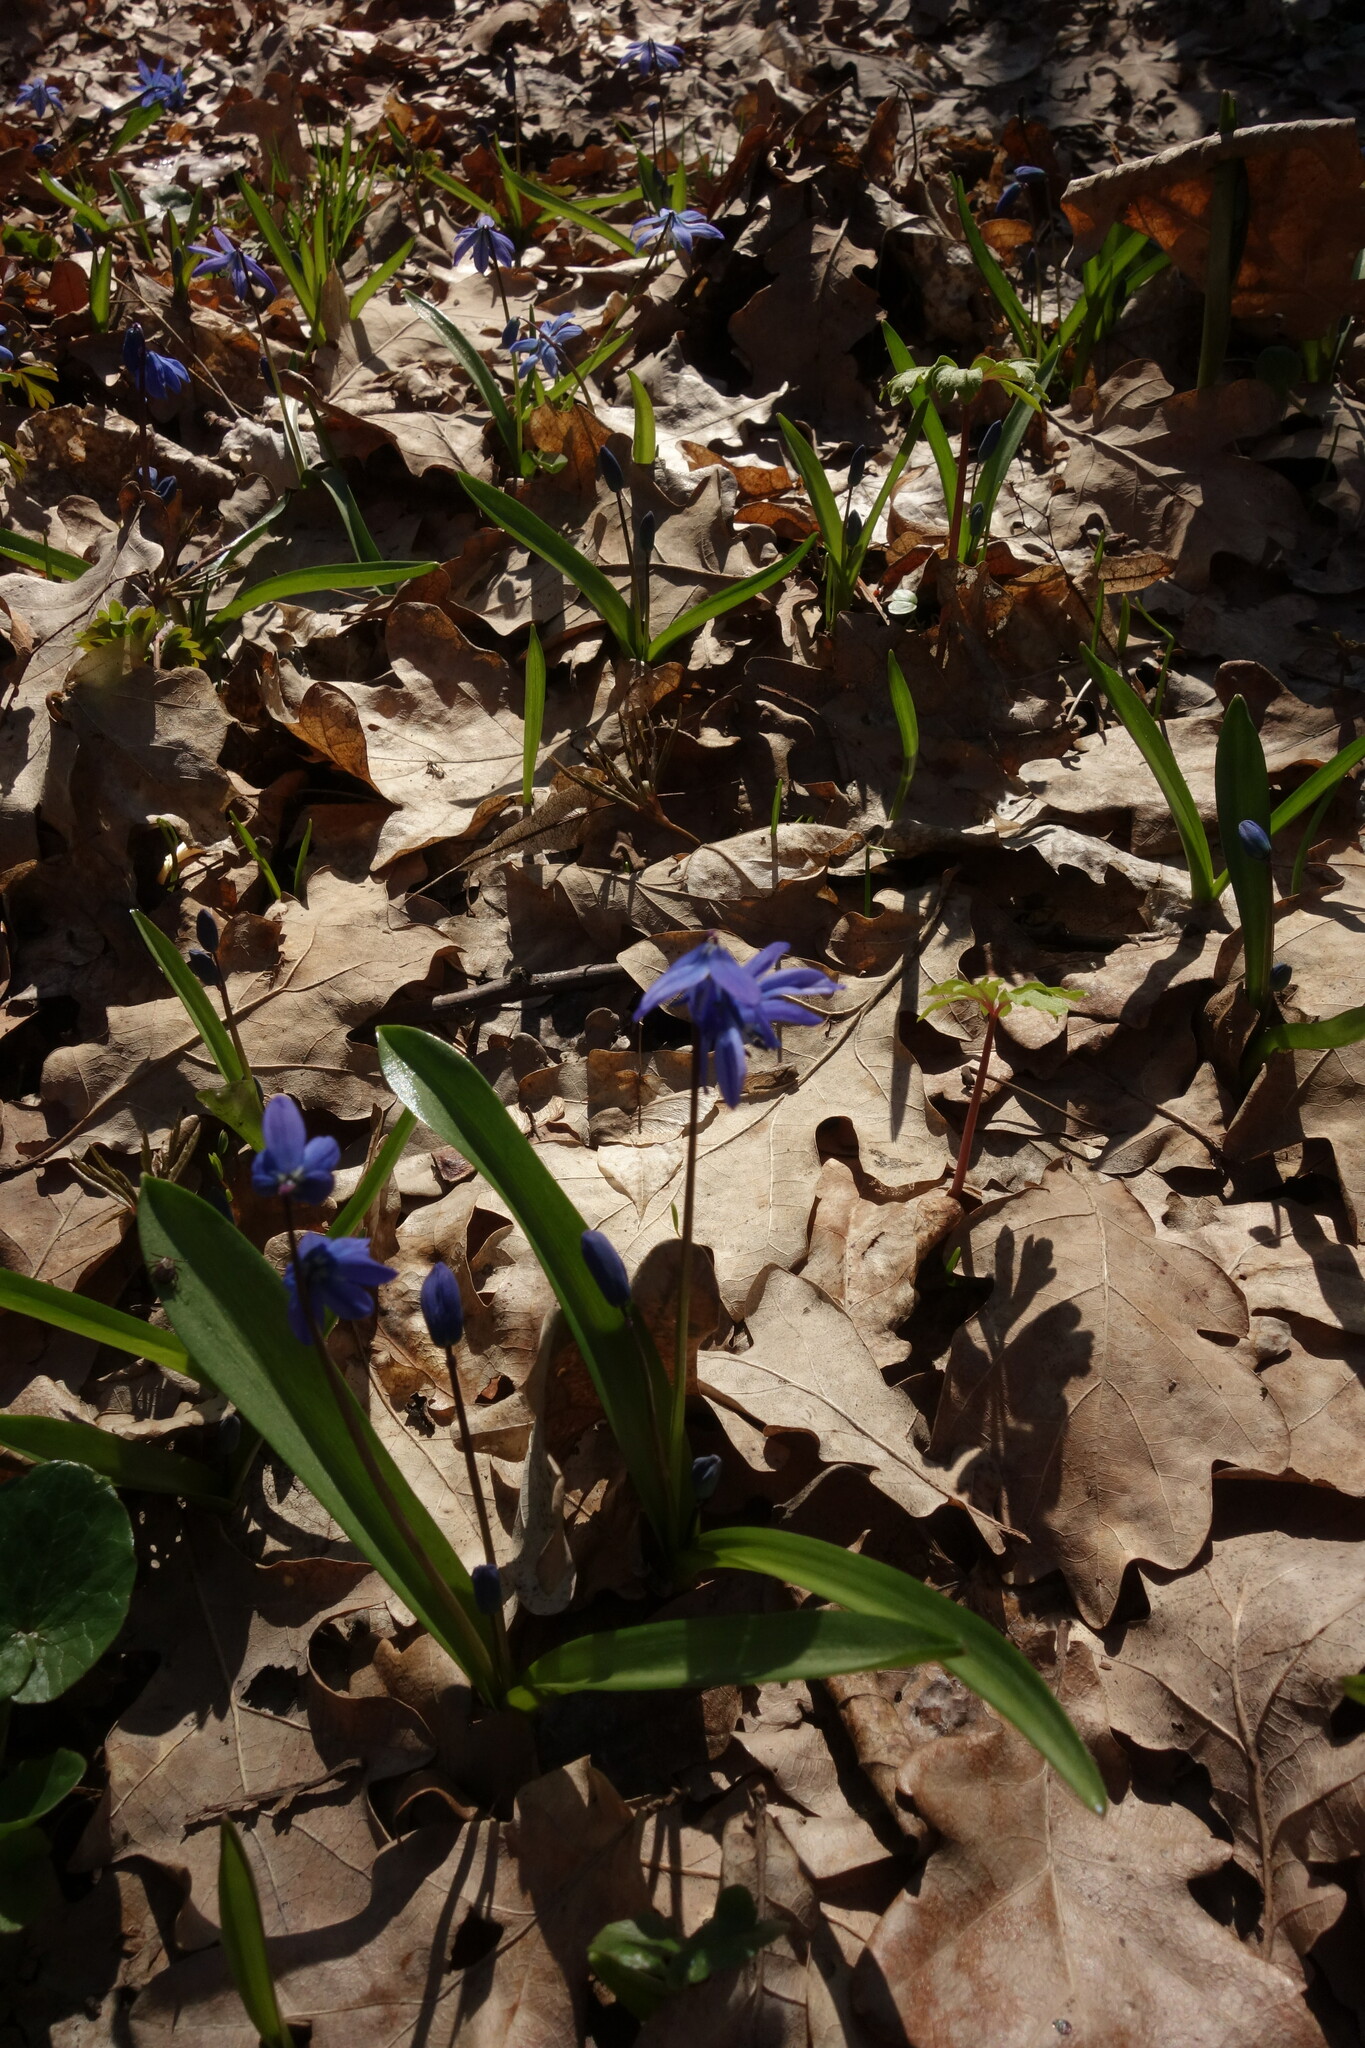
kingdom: Plantae
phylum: Tracheophyta
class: Liliopsida
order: Asparagales
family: Asparagaceae
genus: Scilla
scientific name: Scilla siberica
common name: Siberian squill
